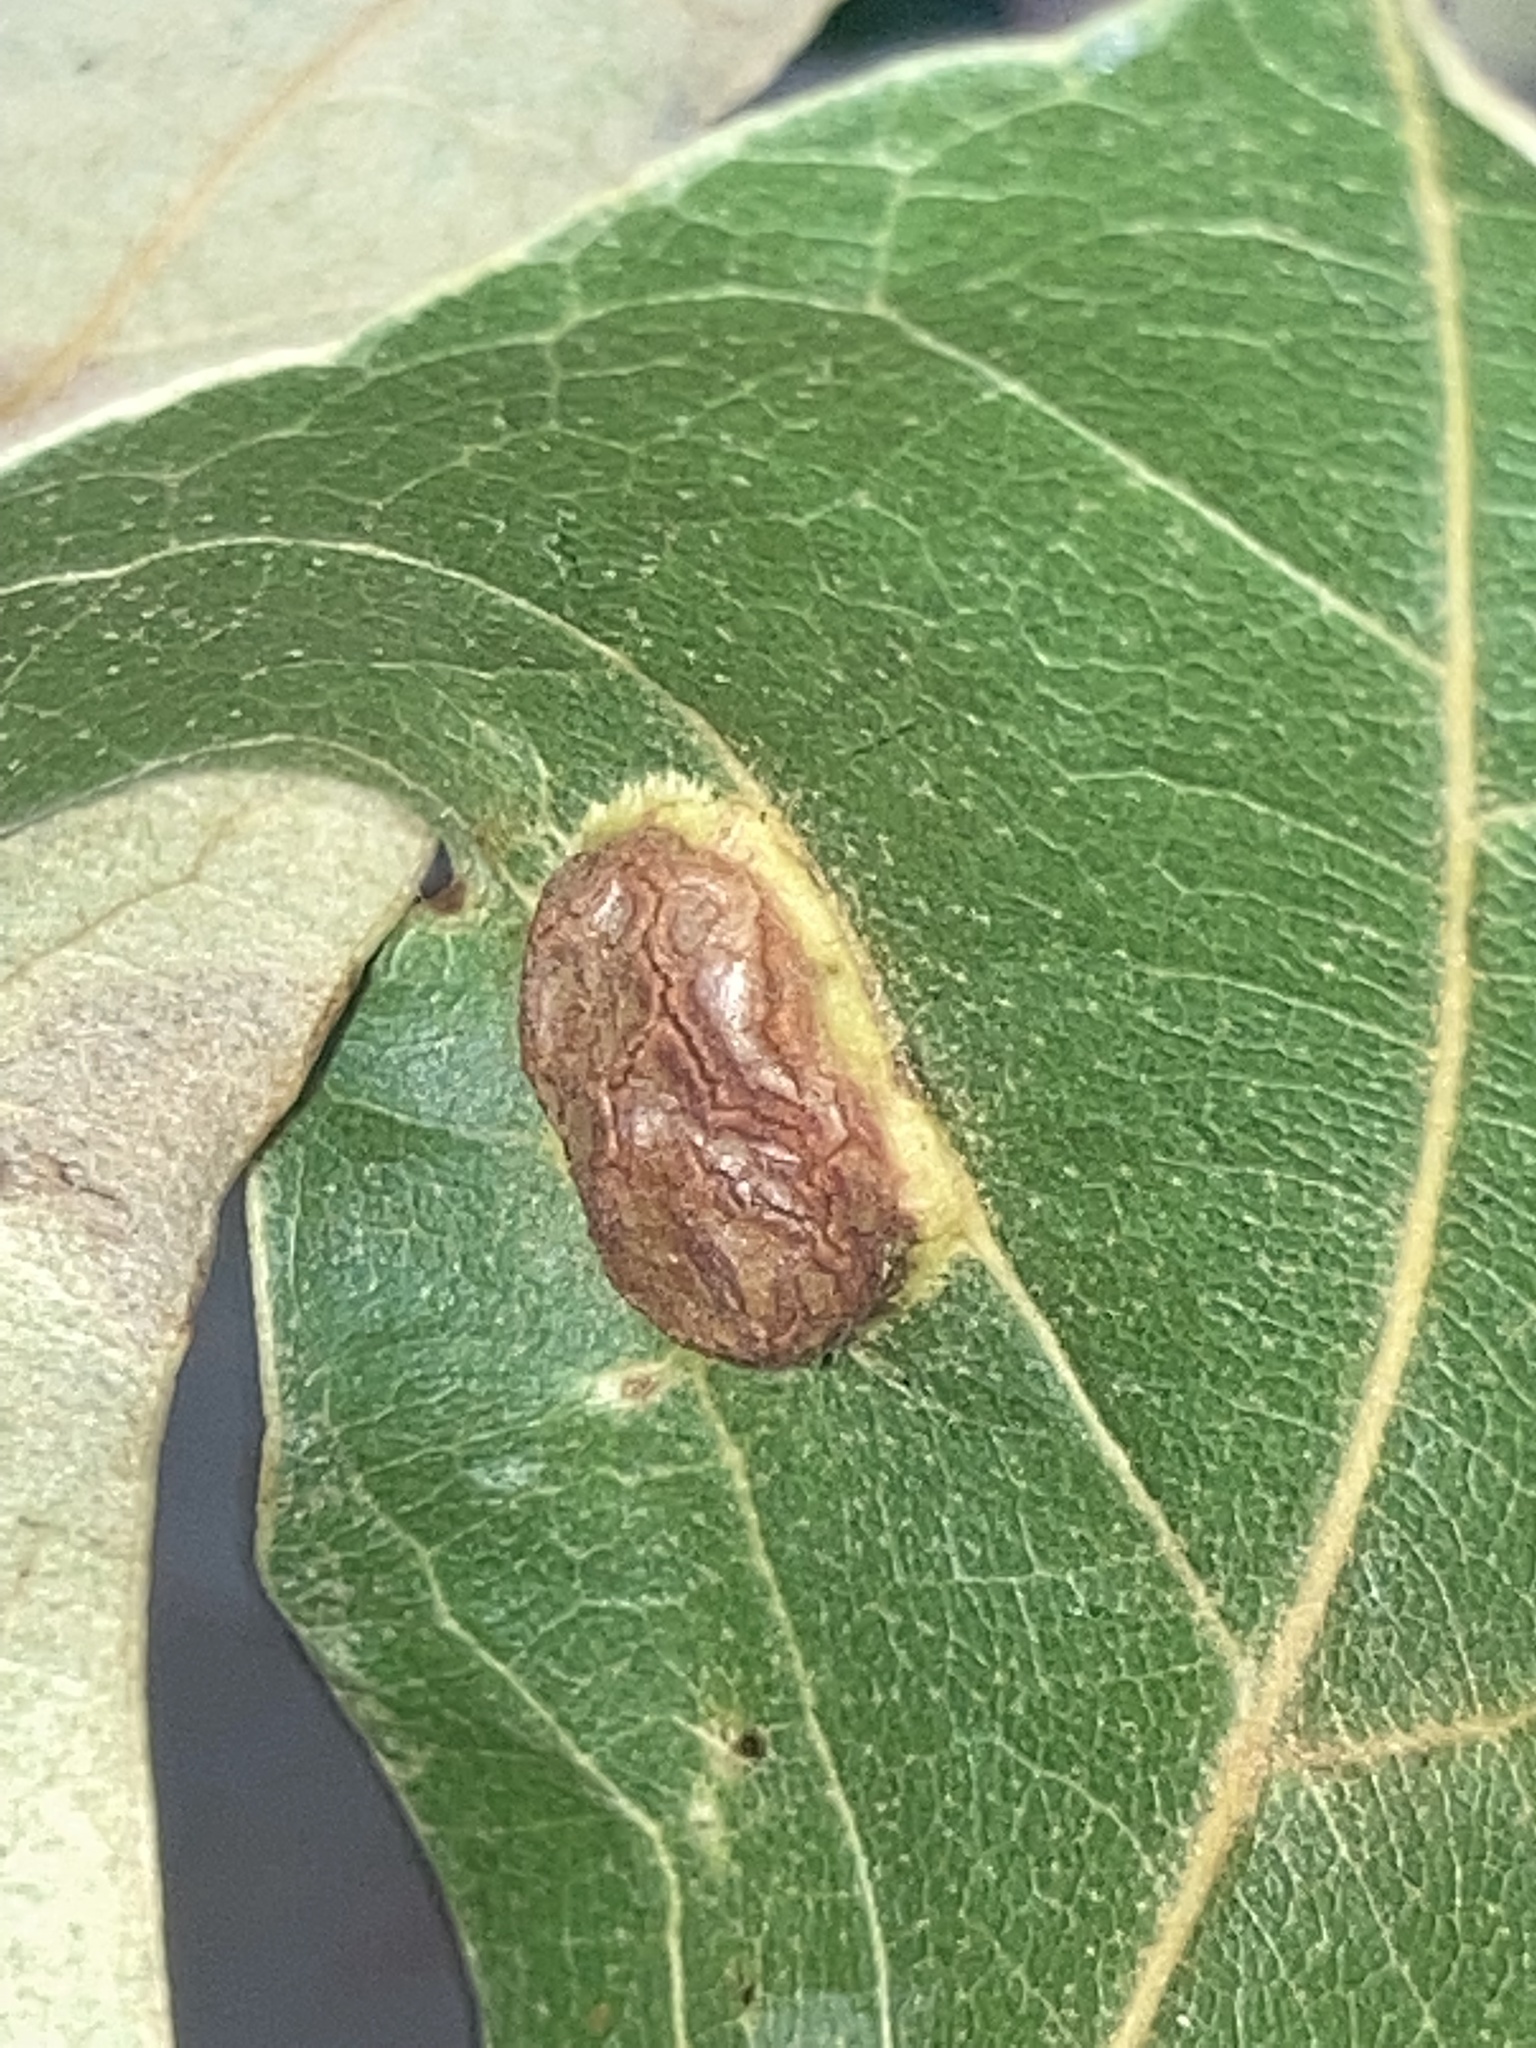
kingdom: Animalia
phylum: Arthropoda
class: Insecta
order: Diptera
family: Cecidomyiidae
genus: Polystepha
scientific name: Polystepha pilulae
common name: Oak leaf gall midge
